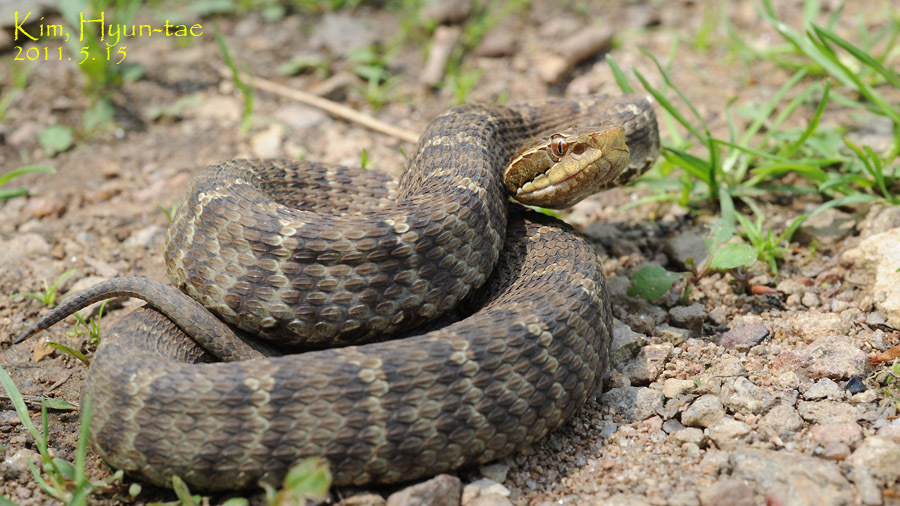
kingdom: Animalia
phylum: Chordata
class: Squamata
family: Viperidae
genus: Gloydius
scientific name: Gloydius ussuriensis
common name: Ussuri mamushi
